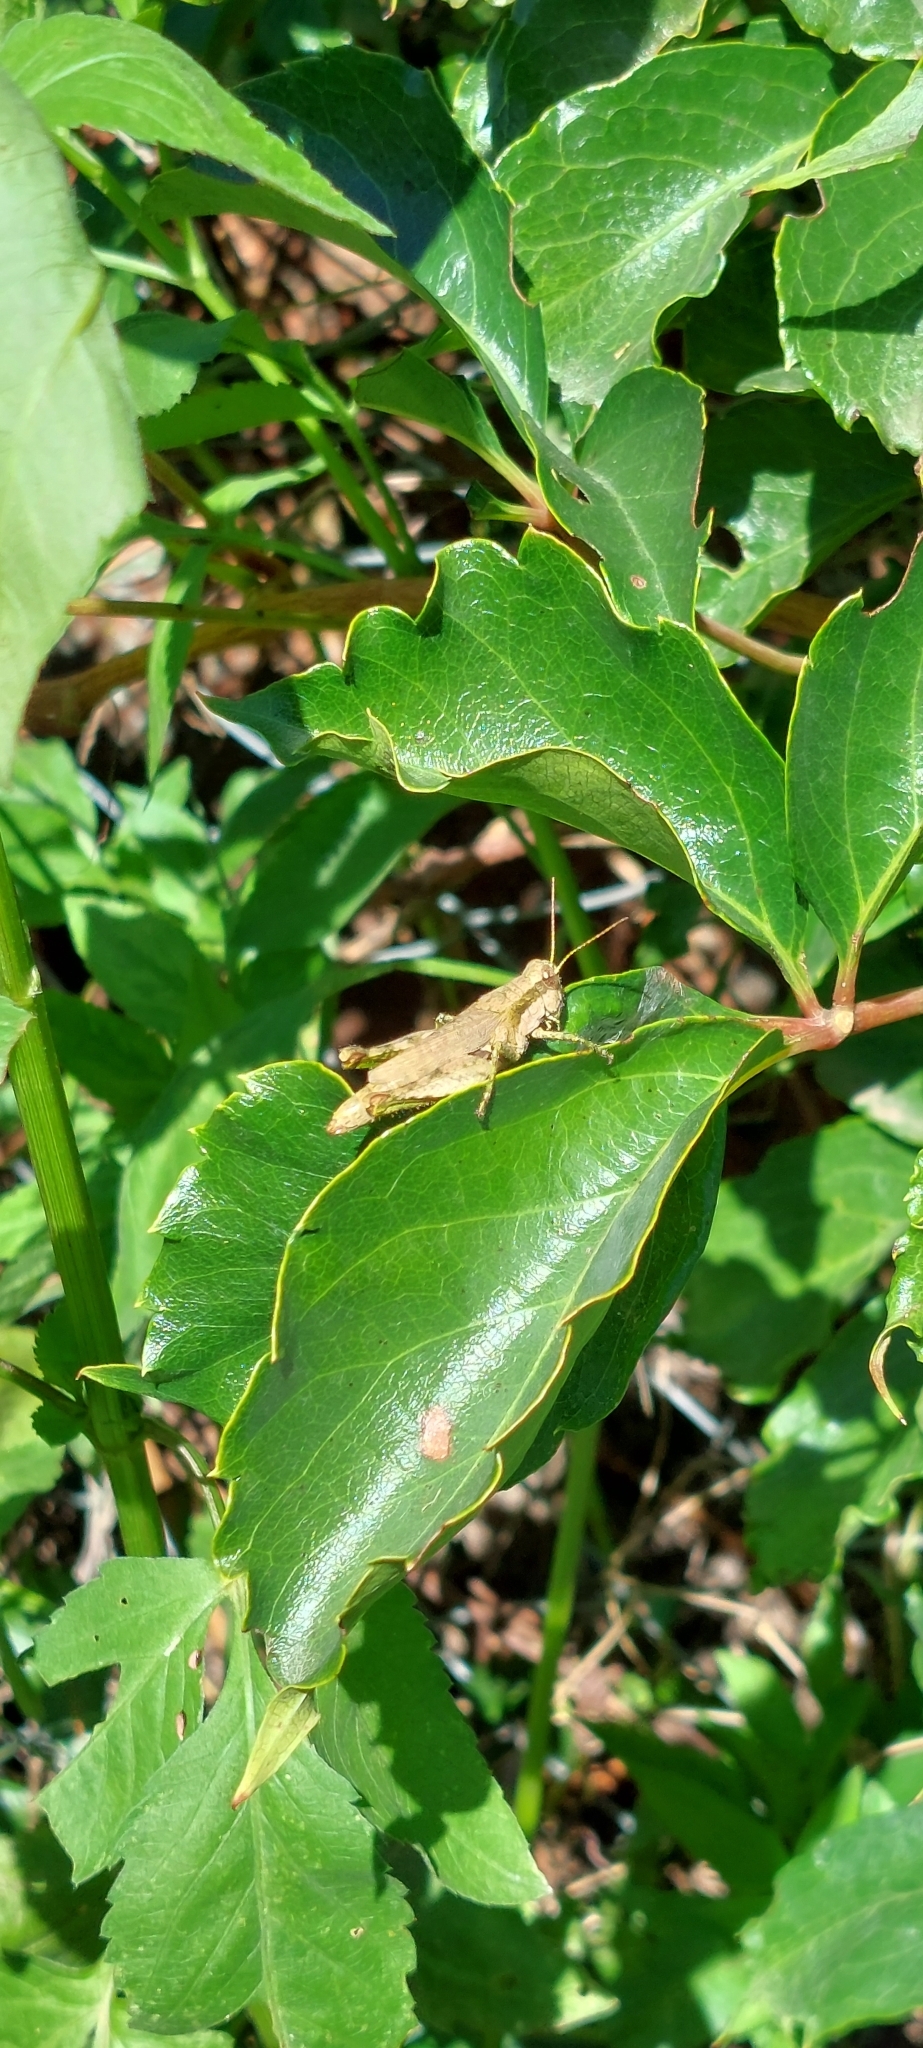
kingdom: Animalia
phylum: Arthropoda
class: Insecta
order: Orthoptera
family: Acrididae
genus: Ronderosia
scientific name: Ronderosia bergii
